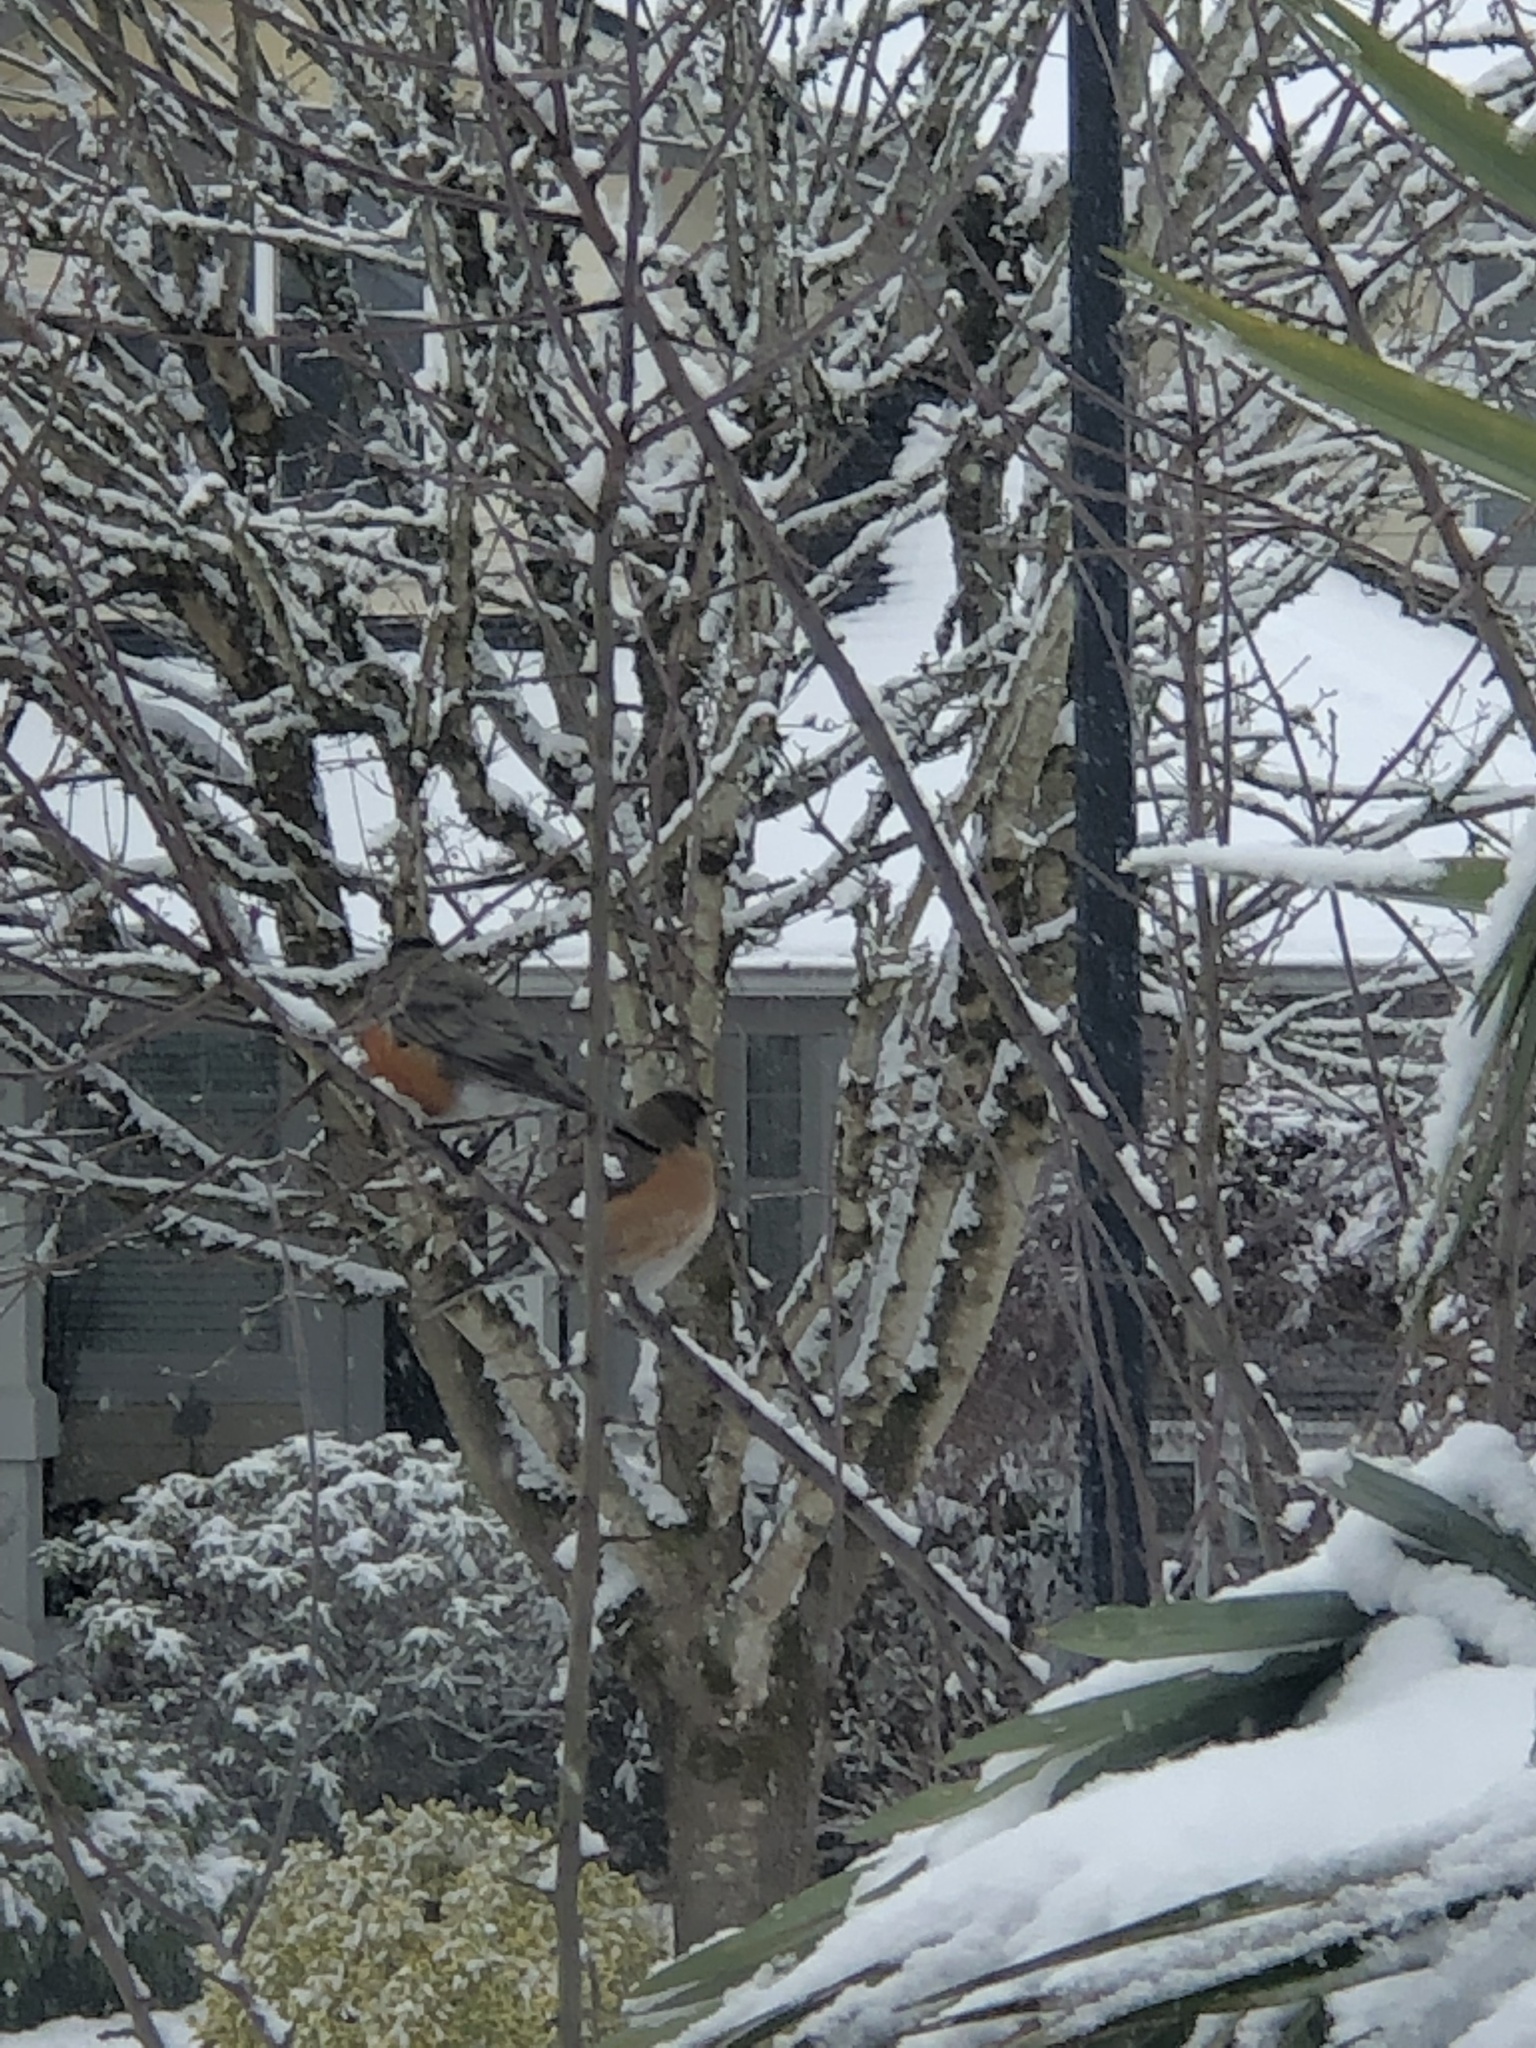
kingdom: Animalia
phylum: Chordata
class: Aves
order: Passeriformes
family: Turdidae
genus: Turdus
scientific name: Turdus migratorius
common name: American robin
